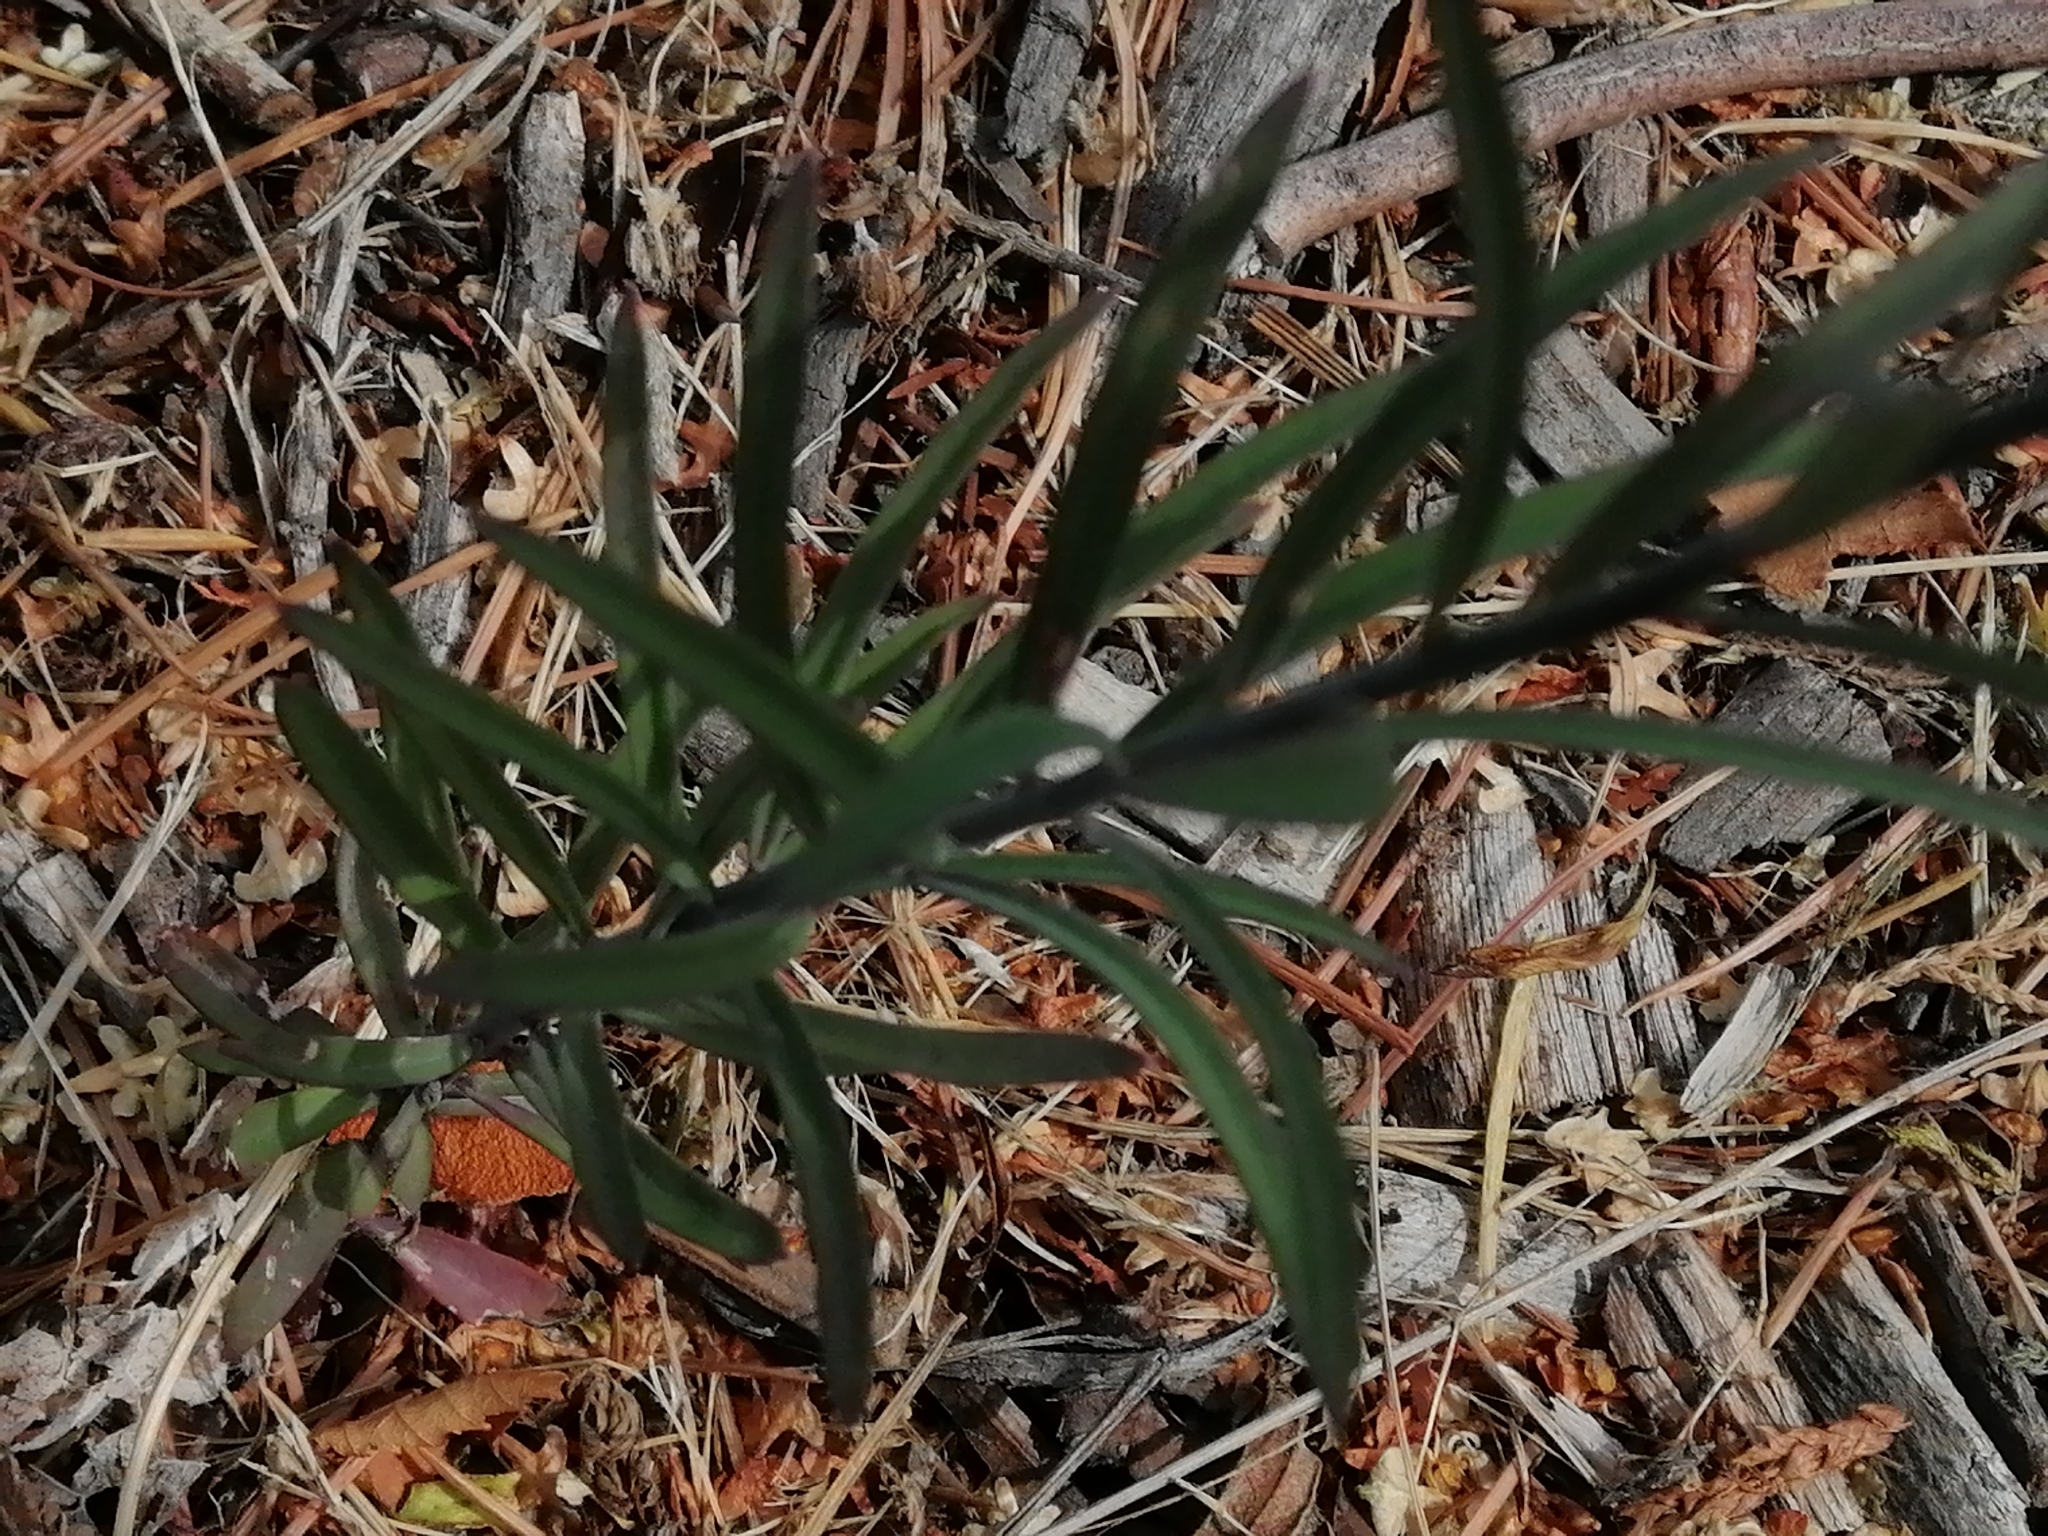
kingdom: Plantae
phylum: Tracheophyta
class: Magnoliopsida
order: Lamiales
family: Plantaginaceae
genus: Linaria
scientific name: Linaria purpurea
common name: Purple toadflax
